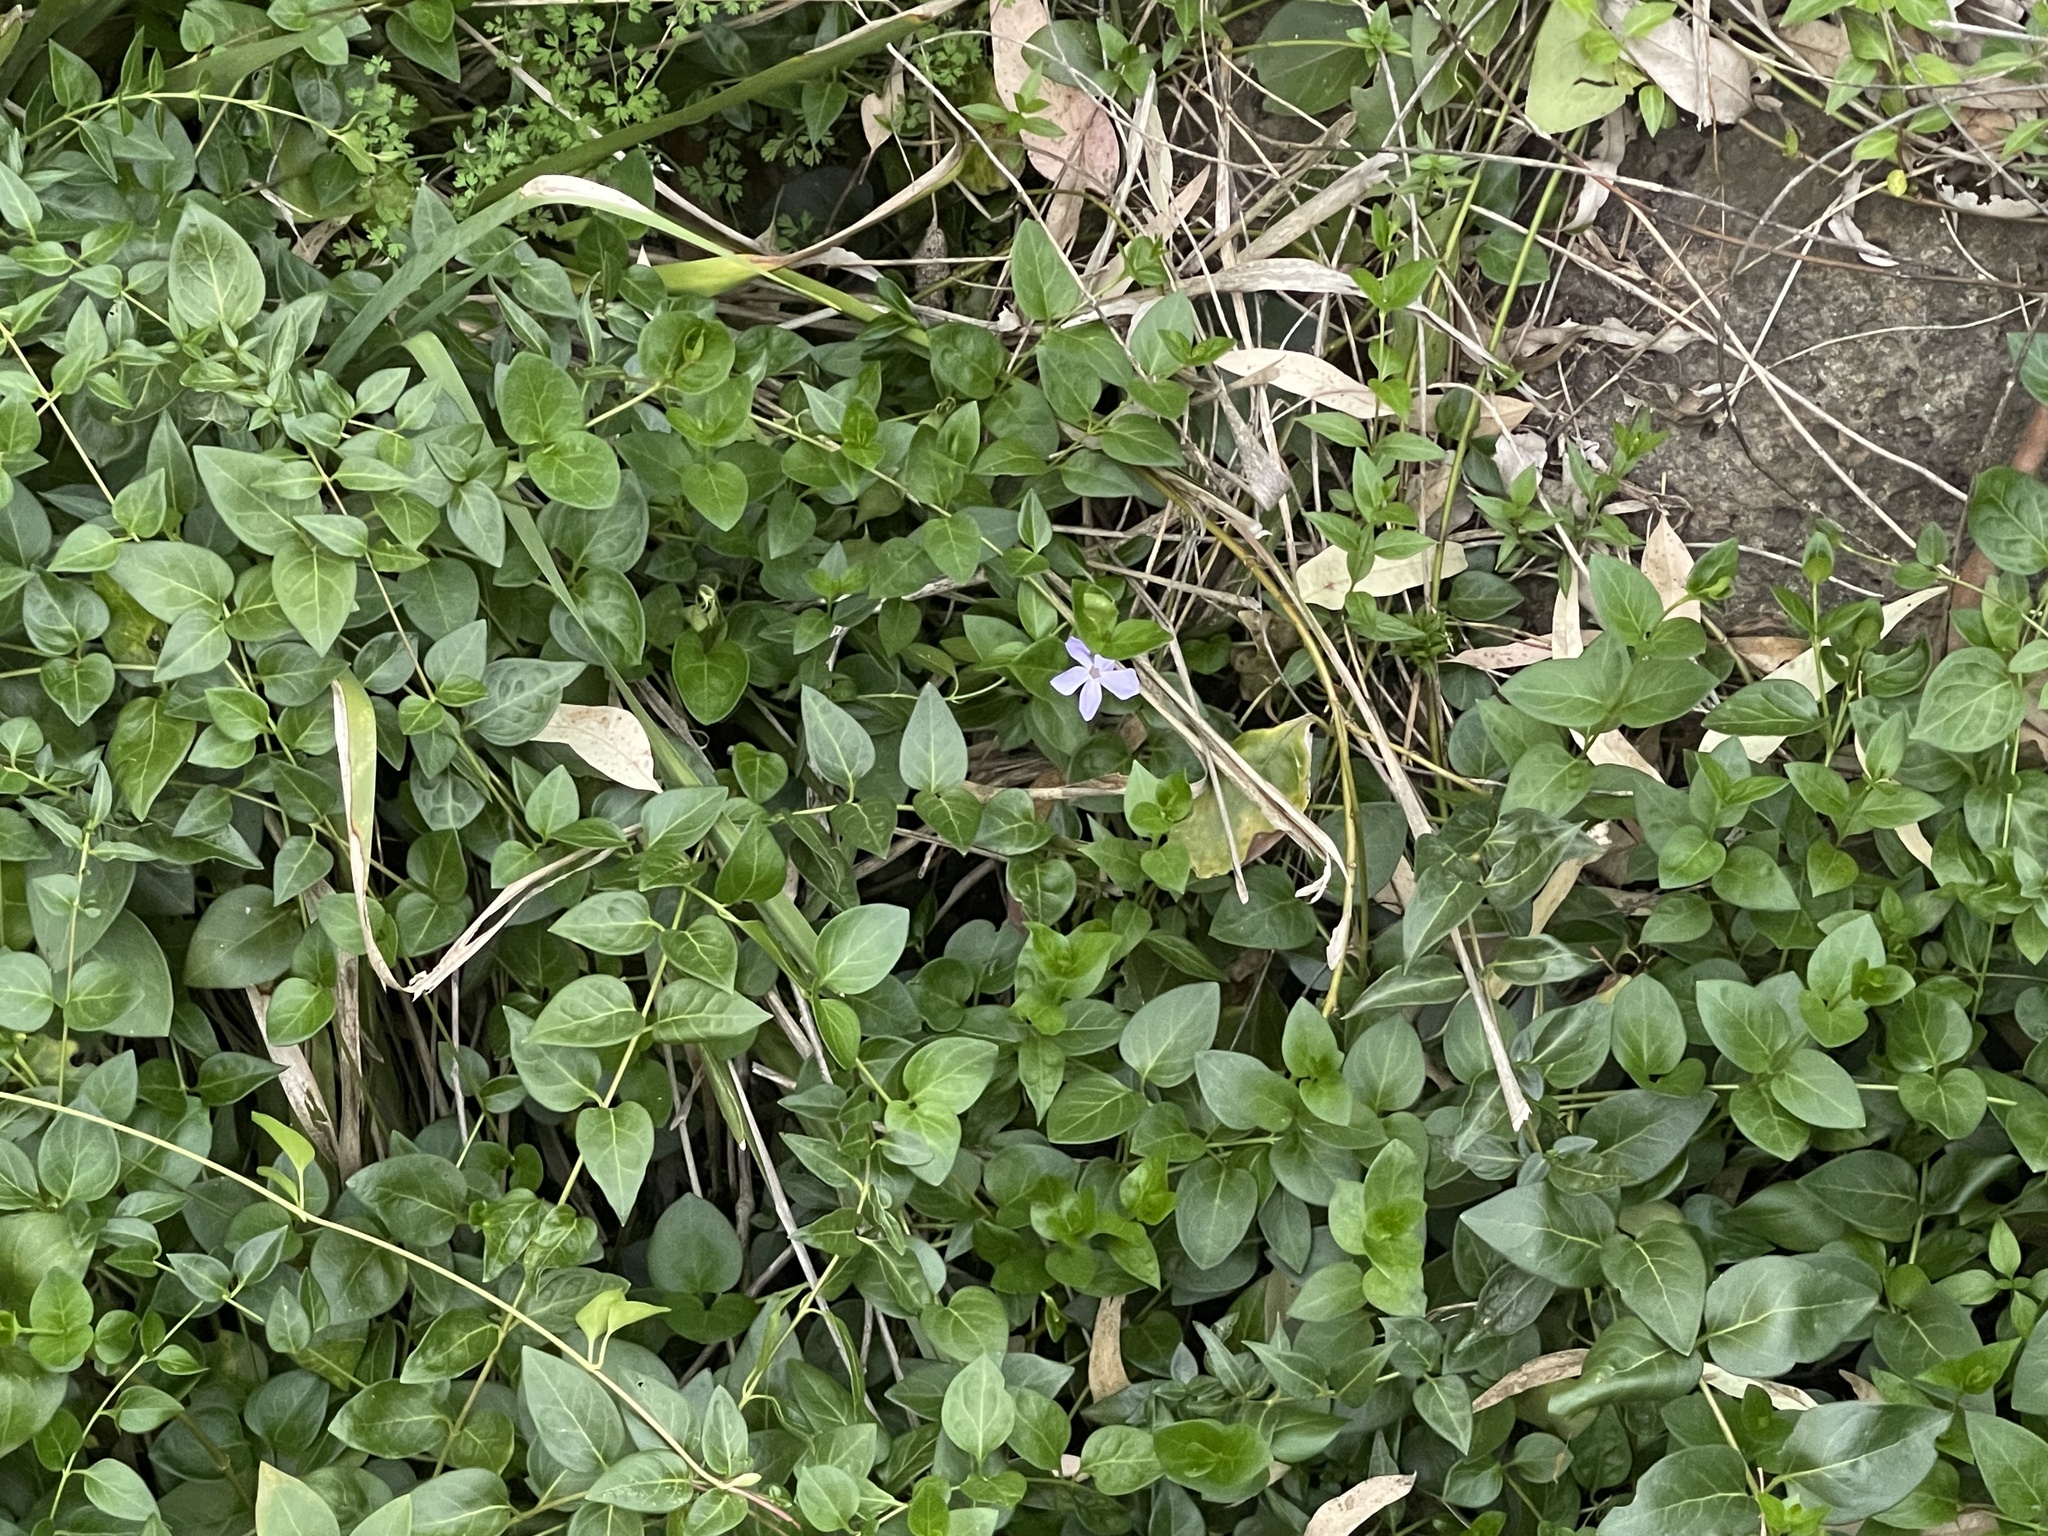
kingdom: Plantae
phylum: Tracheophyta
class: Magnoliopsida
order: Gentianales
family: Apocynaceae
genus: Vinca
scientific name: Vinca major
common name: Greater periwinkle
